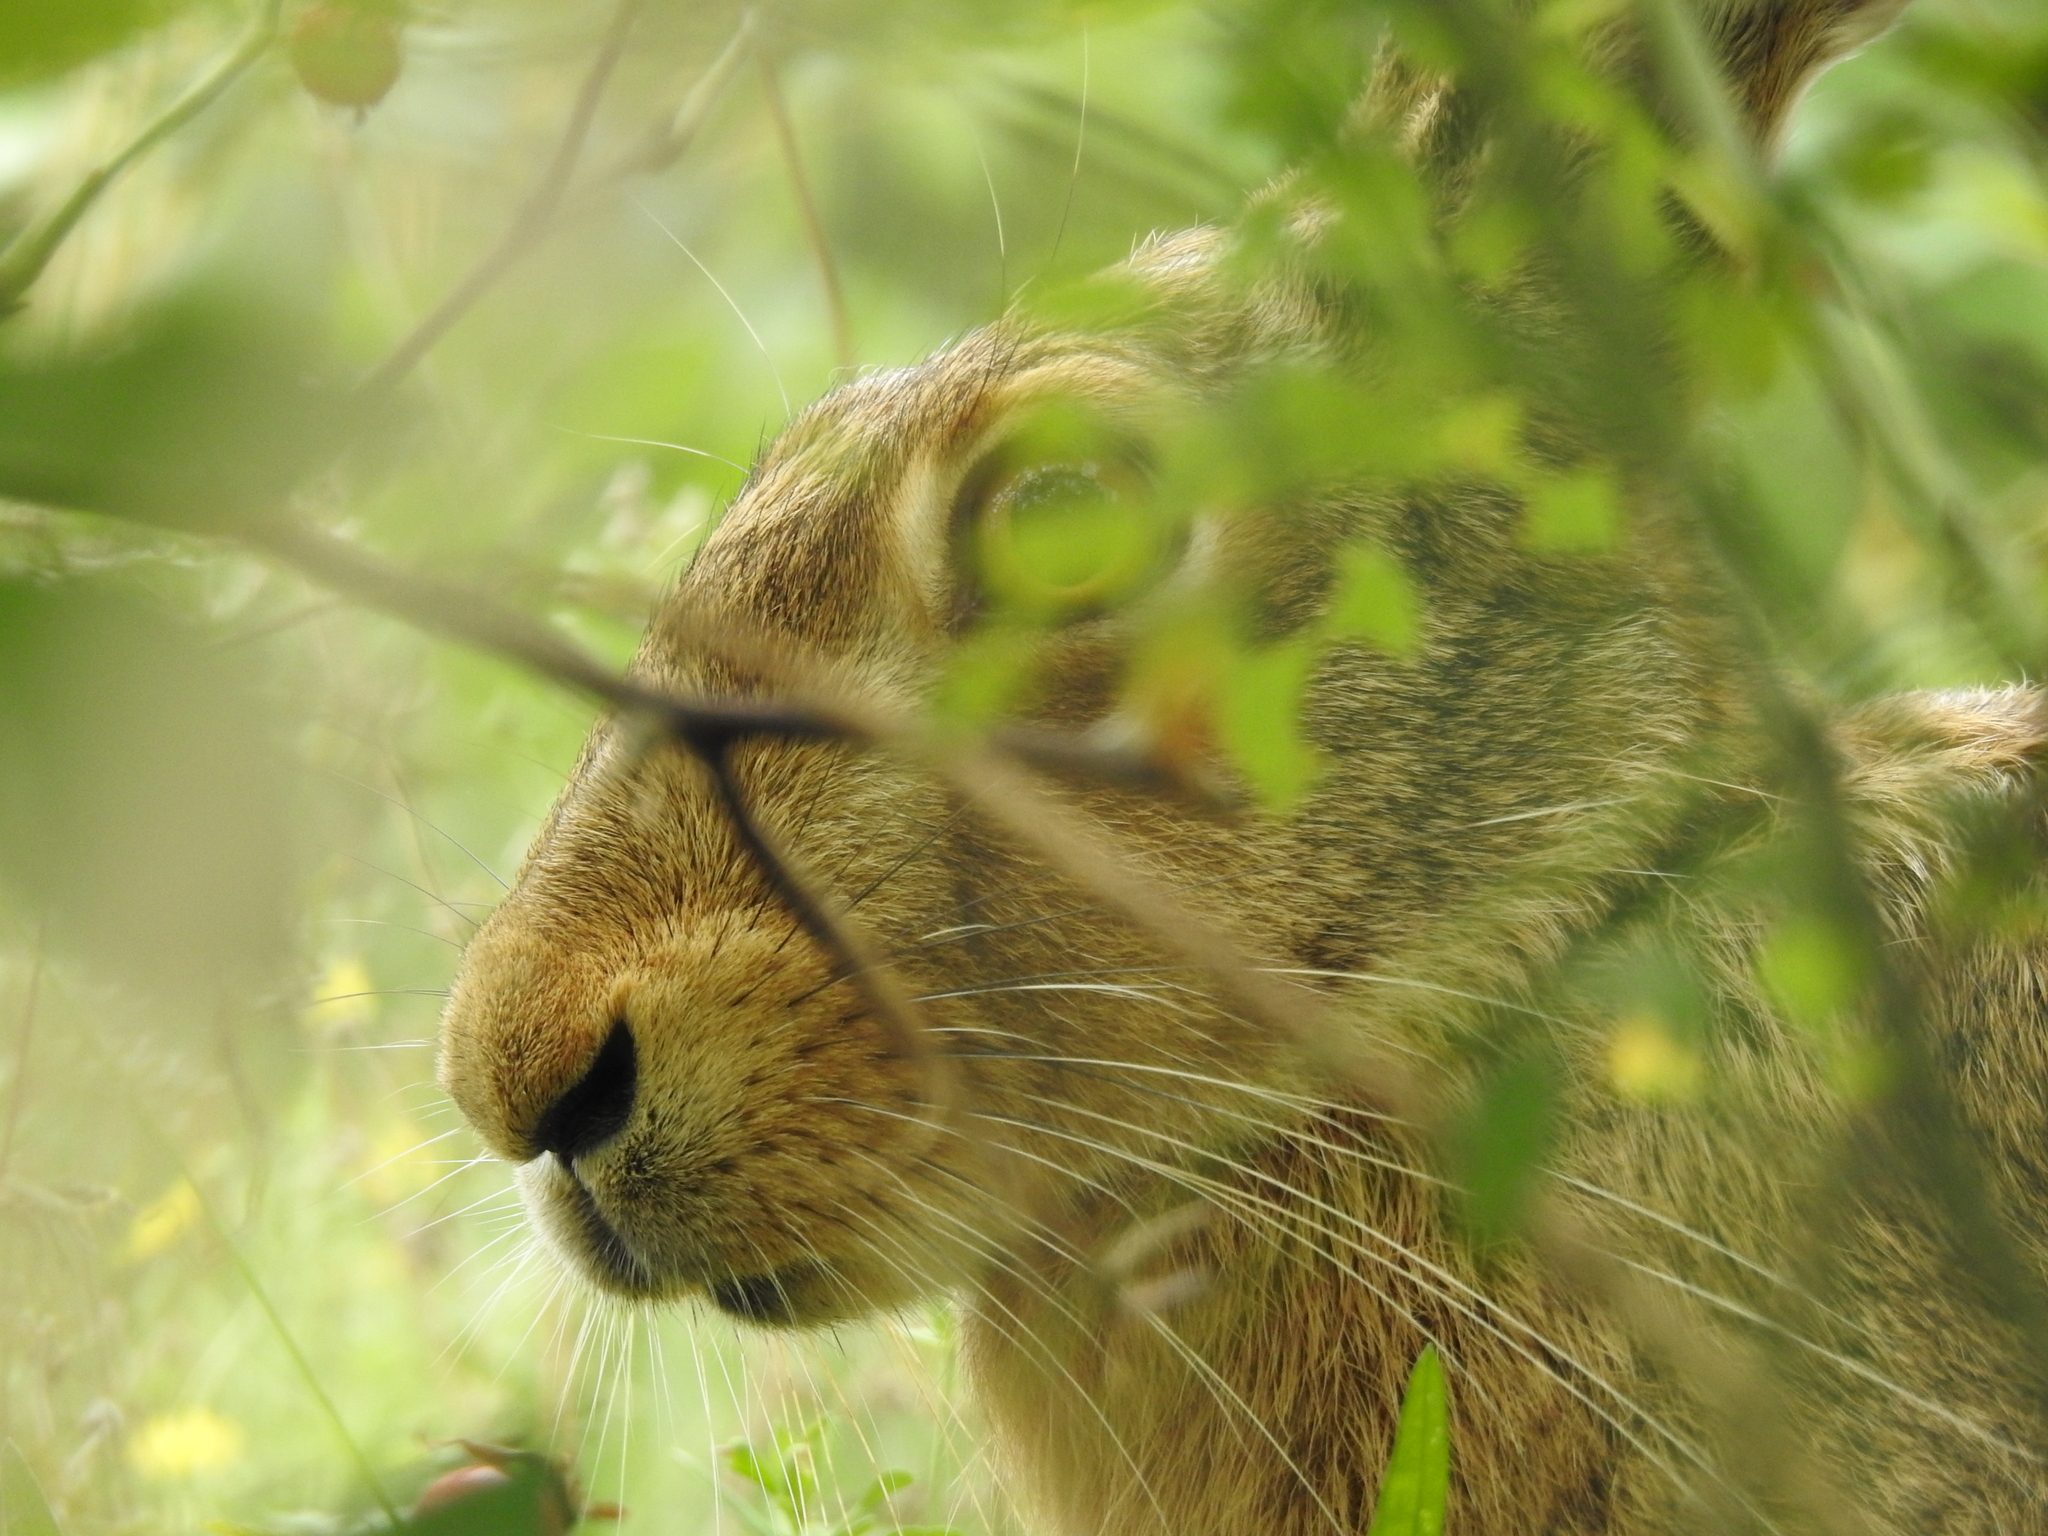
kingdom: Animalia
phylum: Chordata
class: Mammalia
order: Lagomorpha
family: Leporidae
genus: Lepus
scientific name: Lepus europaeus
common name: European hare
